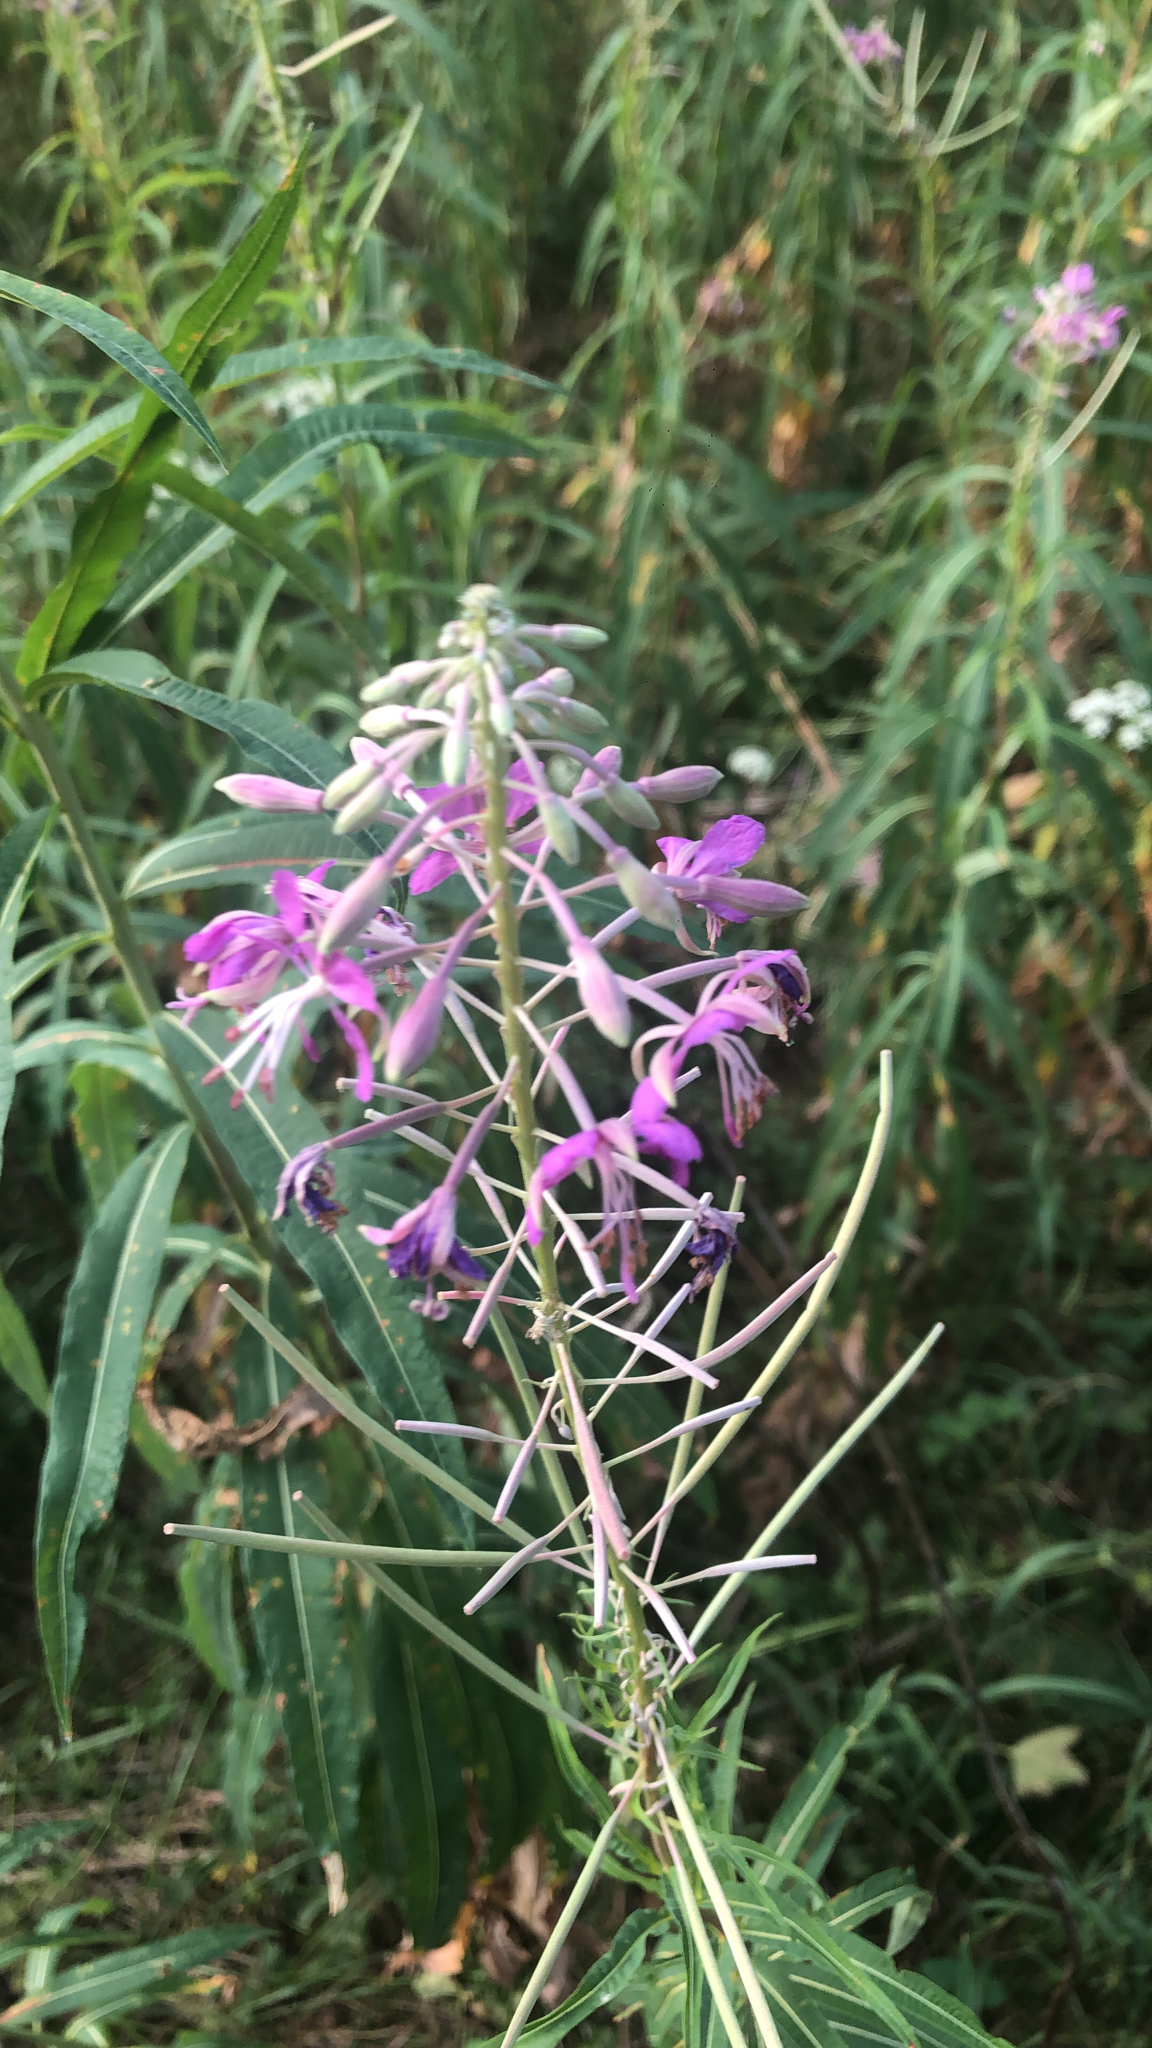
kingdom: Plantae
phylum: Tracheophyta
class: Magnoliopsida
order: Myrtales
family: Onagraceae
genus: Chamaenerion
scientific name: Chamaenerion angustifolium
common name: Fireweed
